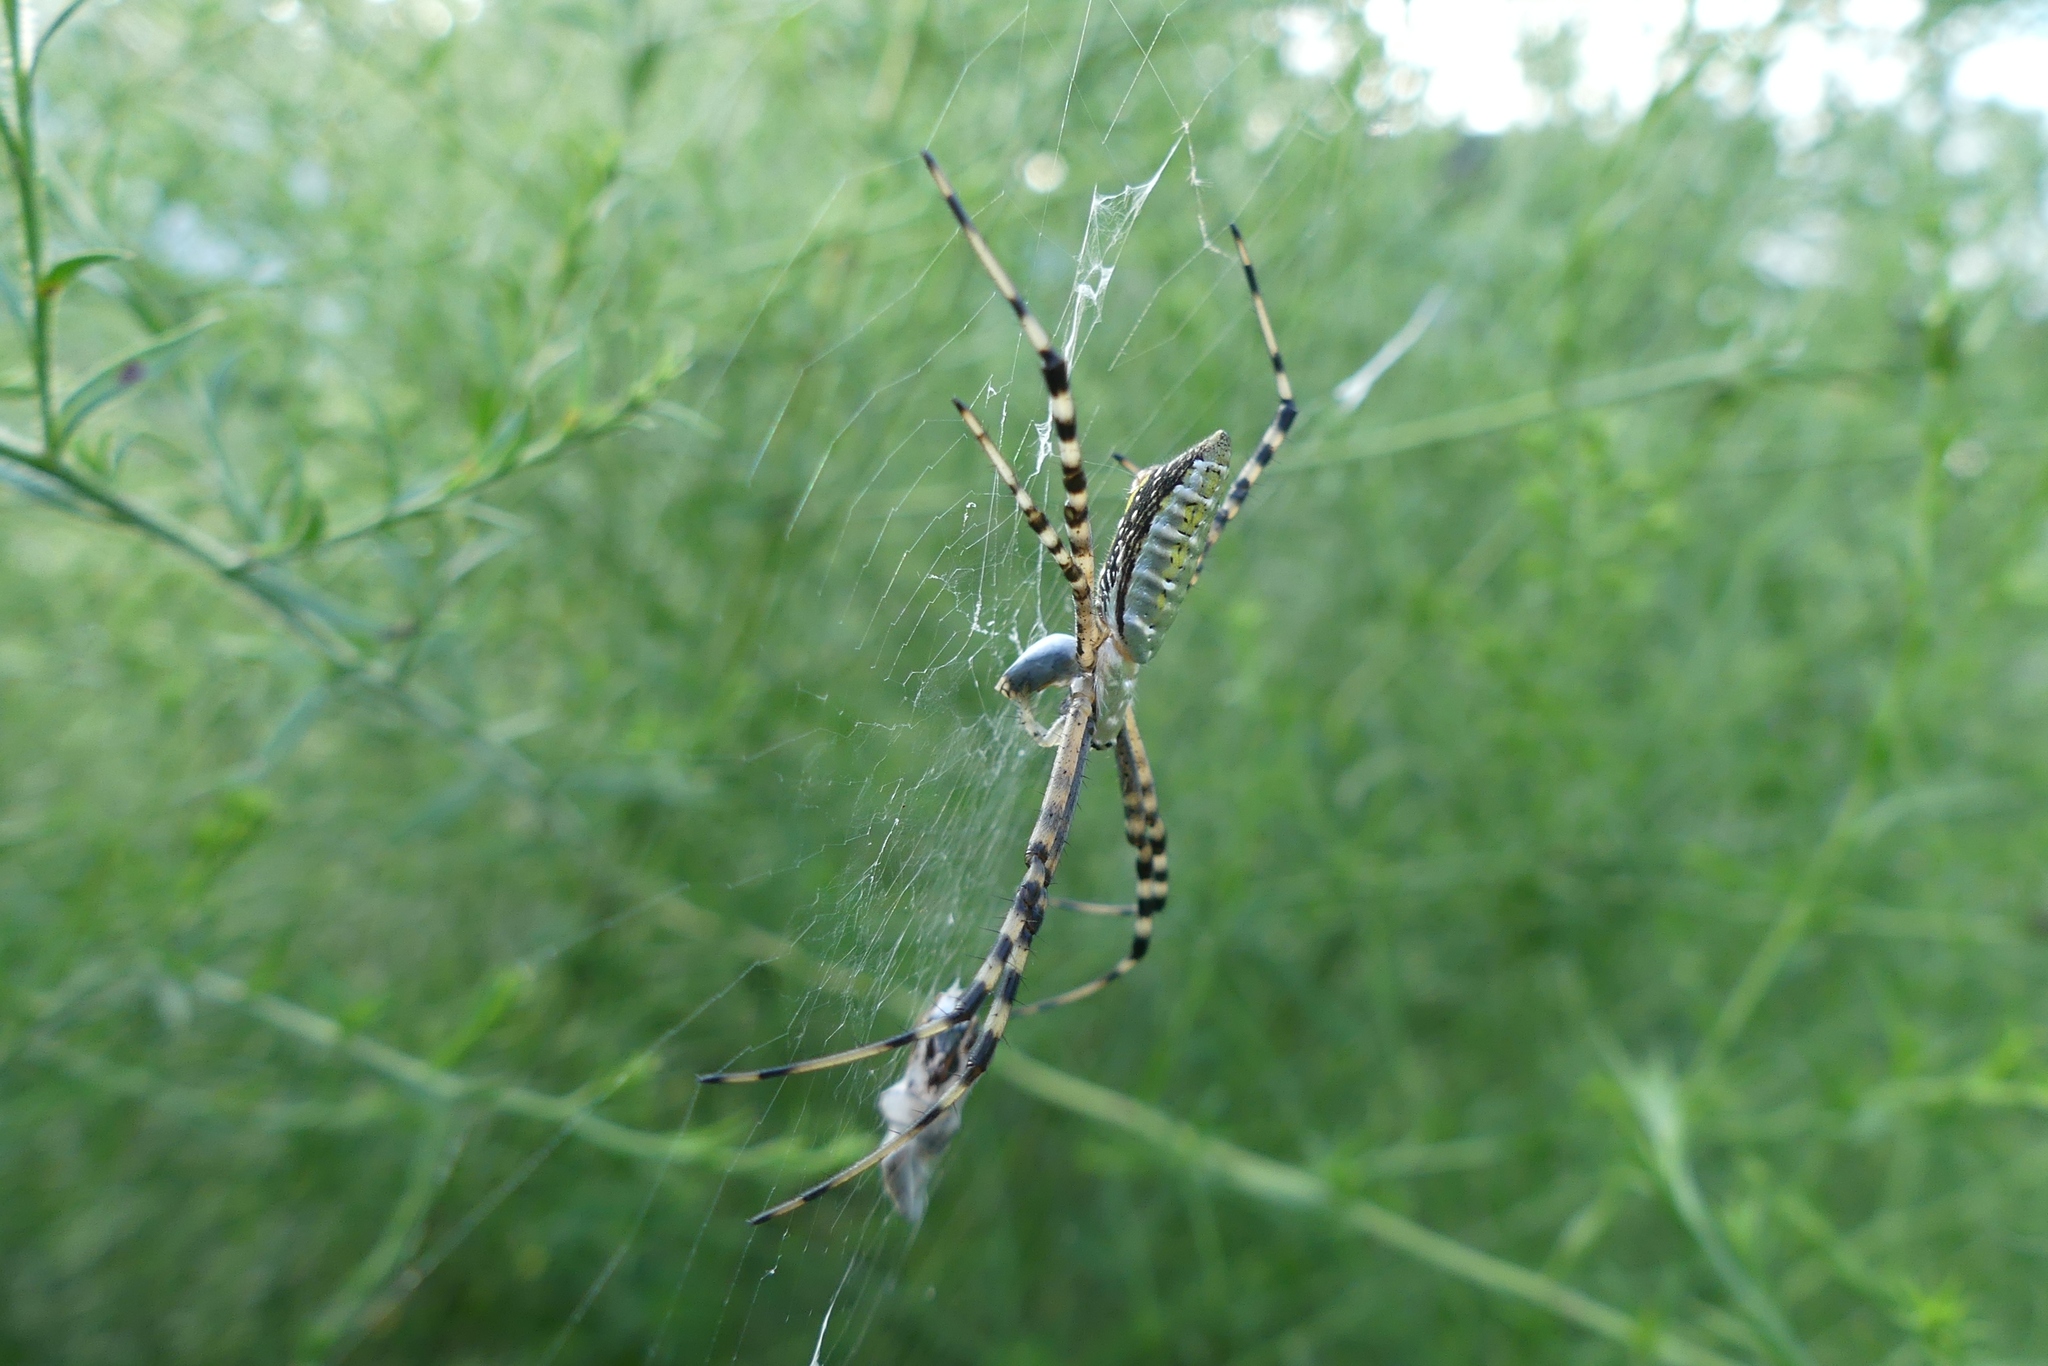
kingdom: Animalia
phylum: Arthropoda
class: Arachnida
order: Araneae
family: Araneidae
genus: Argiope
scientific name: Argiope trifasciata
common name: Banded garden spider
